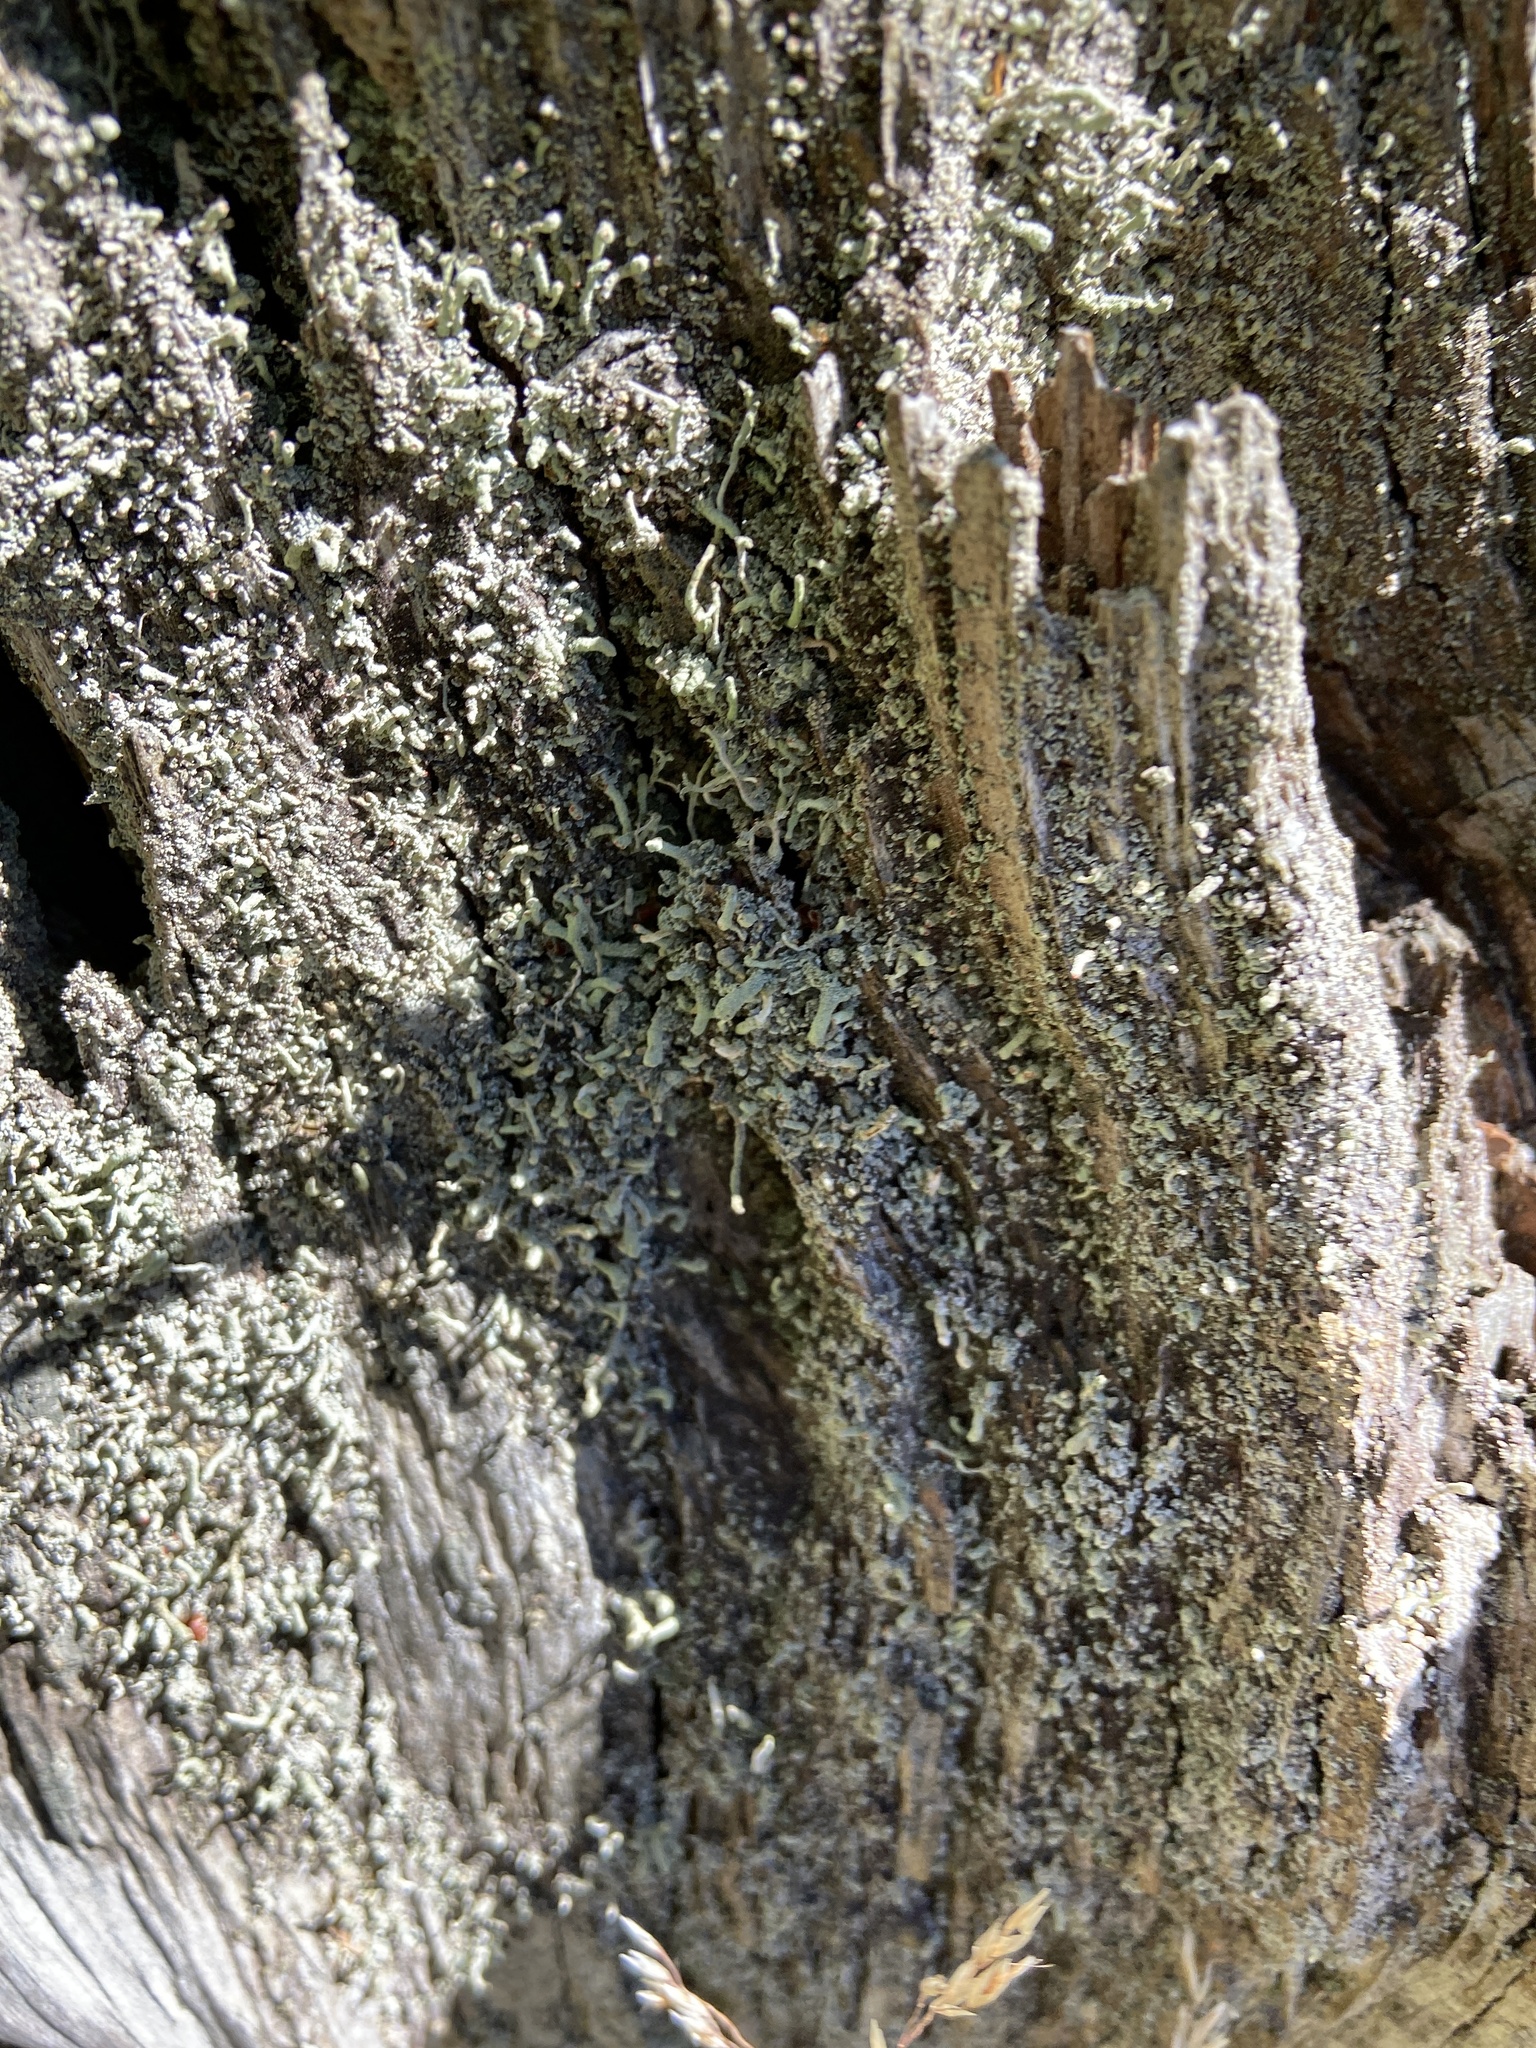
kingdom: Fungi
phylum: Ascomycota
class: Lecanoromycetes
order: Lecanorales
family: Cladoniaceae
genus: Cladonia
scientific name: Cladonia digitata
